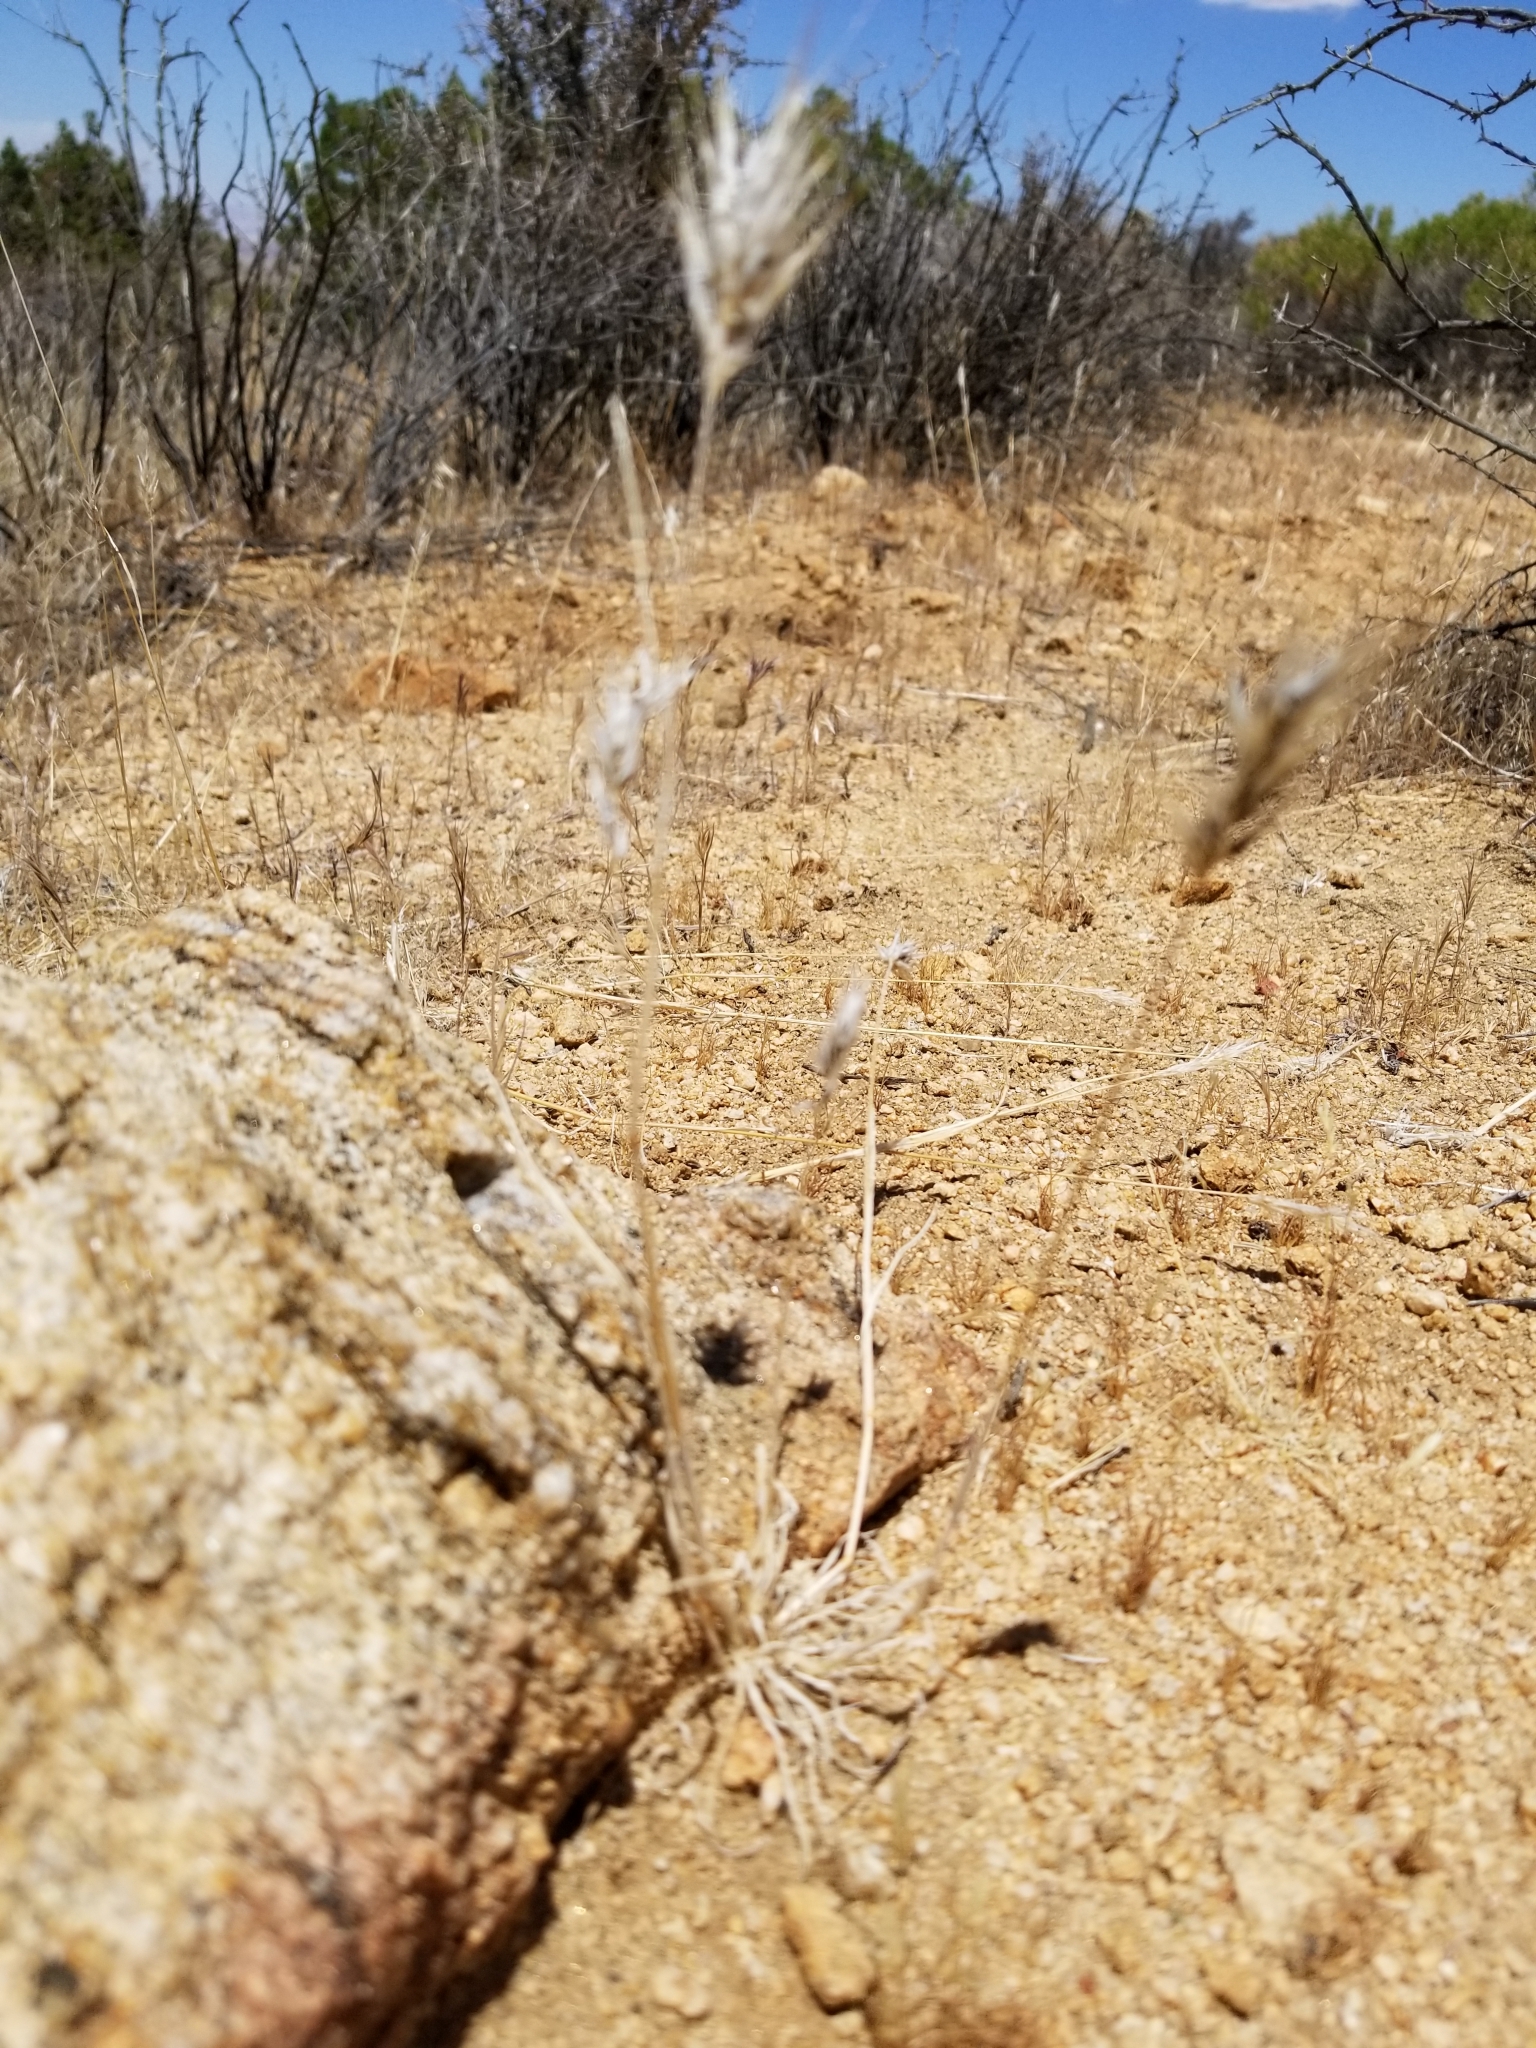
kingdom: Plantae
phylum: Tracheophyta
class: Liliopsida
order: Poales
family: Poaceae
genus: Bromus
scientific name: Bromus rubens
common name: Red brome
